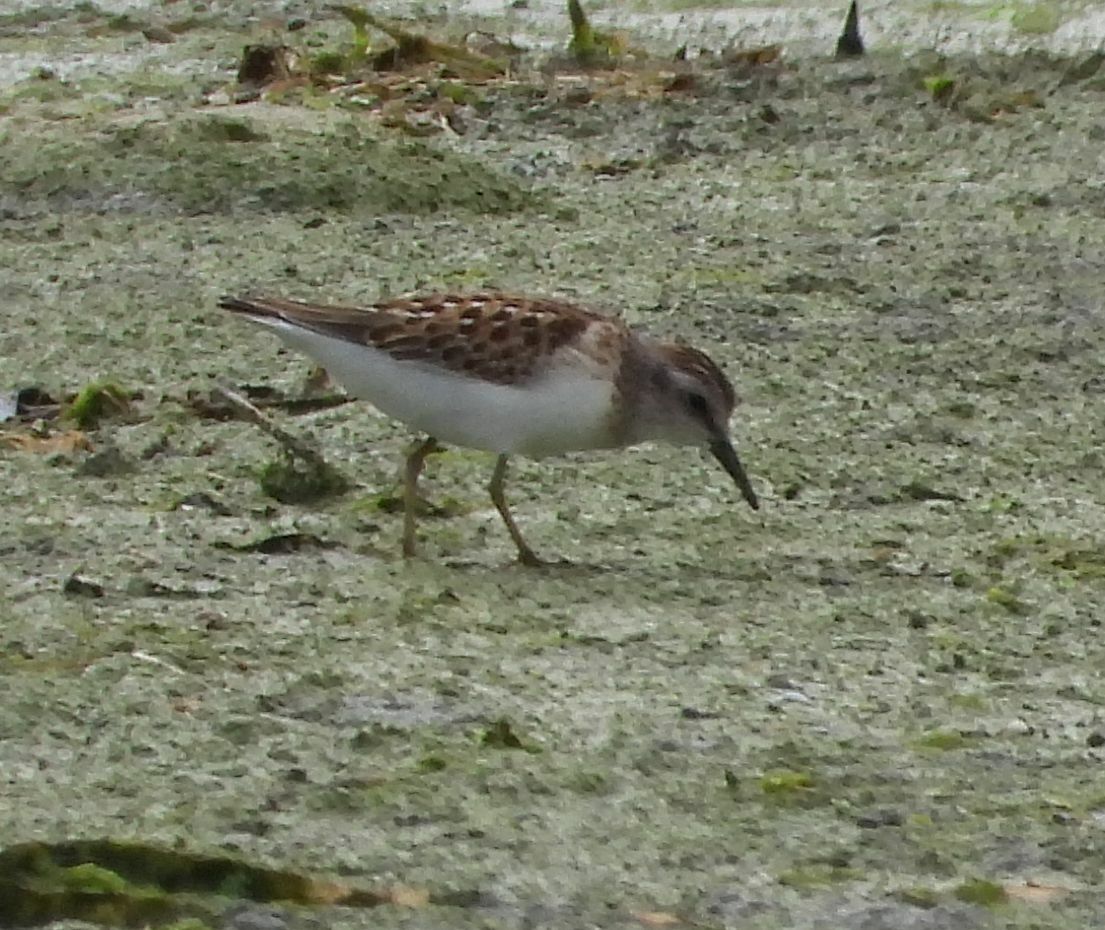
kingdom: Animalia
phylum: Chordata
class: Aves
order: Charadriiformes
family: Scolopacidae
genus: Calidris
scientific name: Calidris minutilla
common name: Least sandpiper
